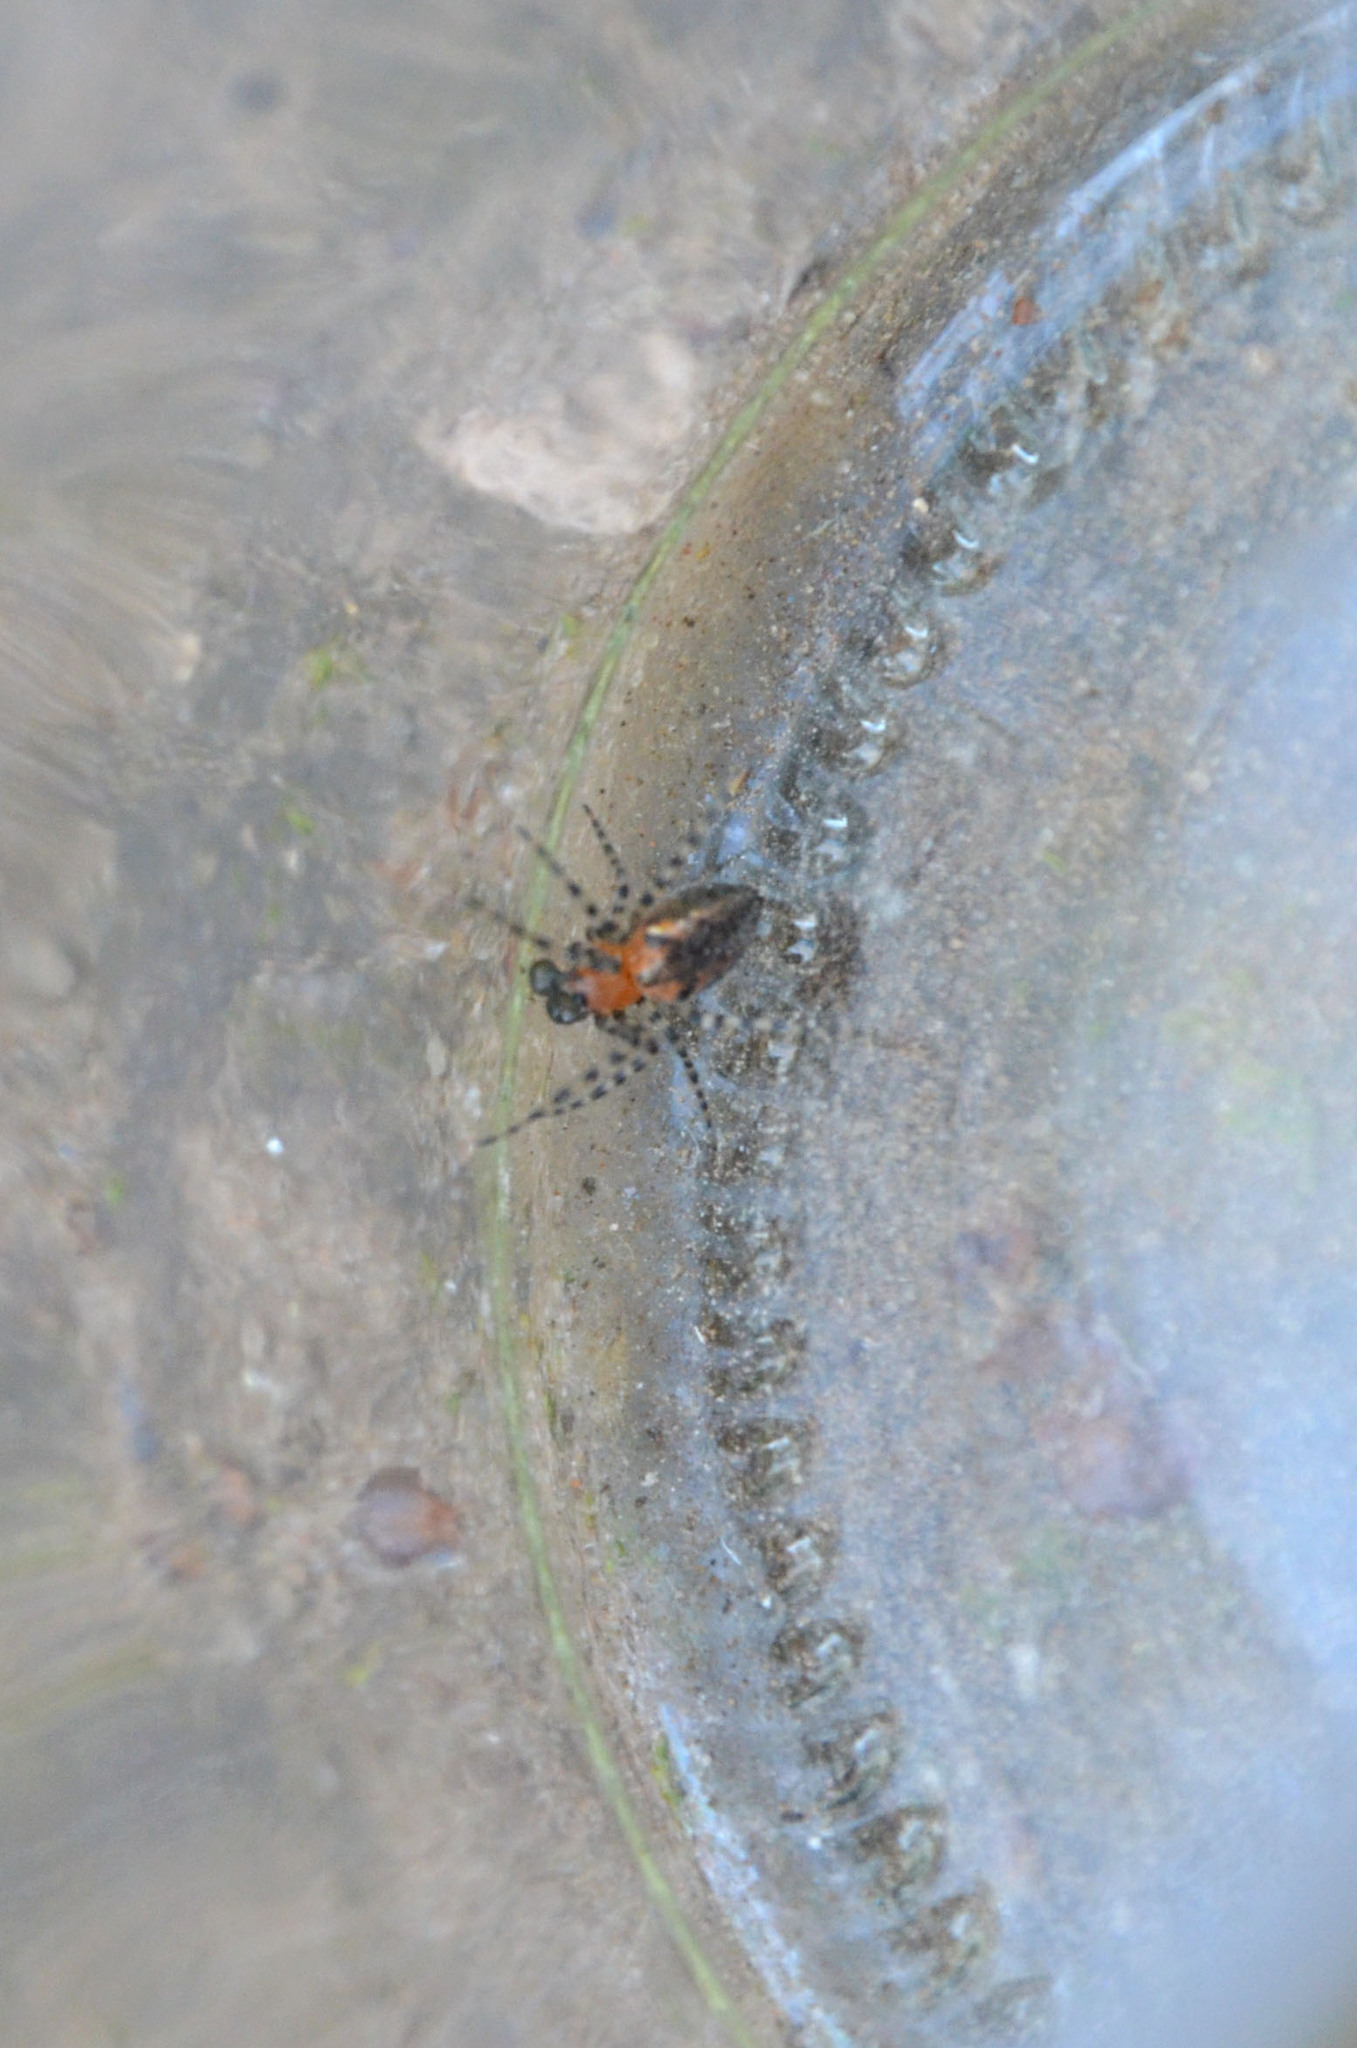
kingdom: Animalia
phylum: Arthropoda
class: Arachnida
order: Araneae
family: Araneidae
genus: Alpaida
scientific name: Alpaida gallardoi
